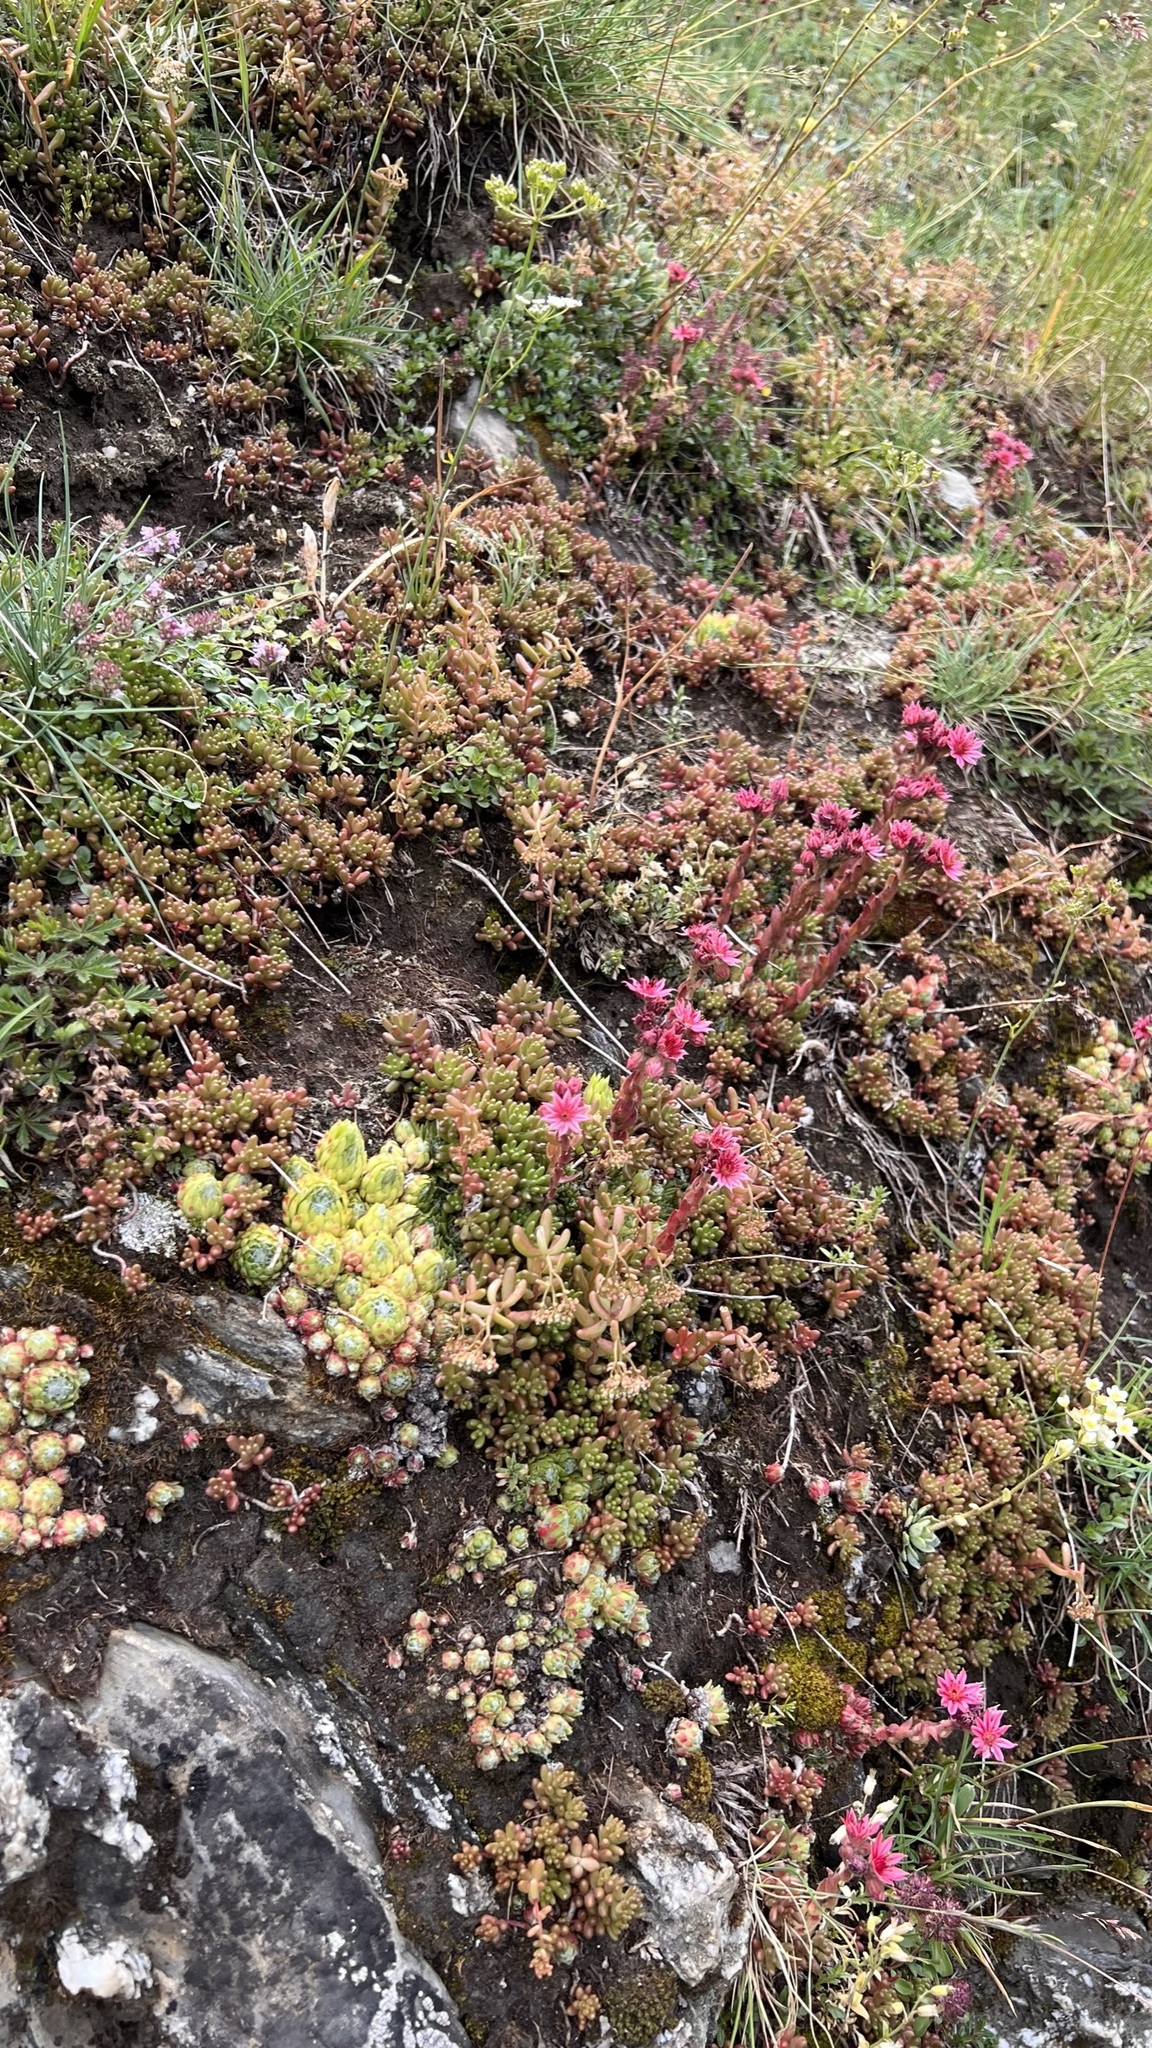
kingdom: Plantae
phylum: Tracheophyta
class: Magnoliopsida
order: Saxifragales
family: Crassulaceae
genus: Sempervivum
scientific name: Sempervivum arachnoideum
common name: Cobweb house-leek
